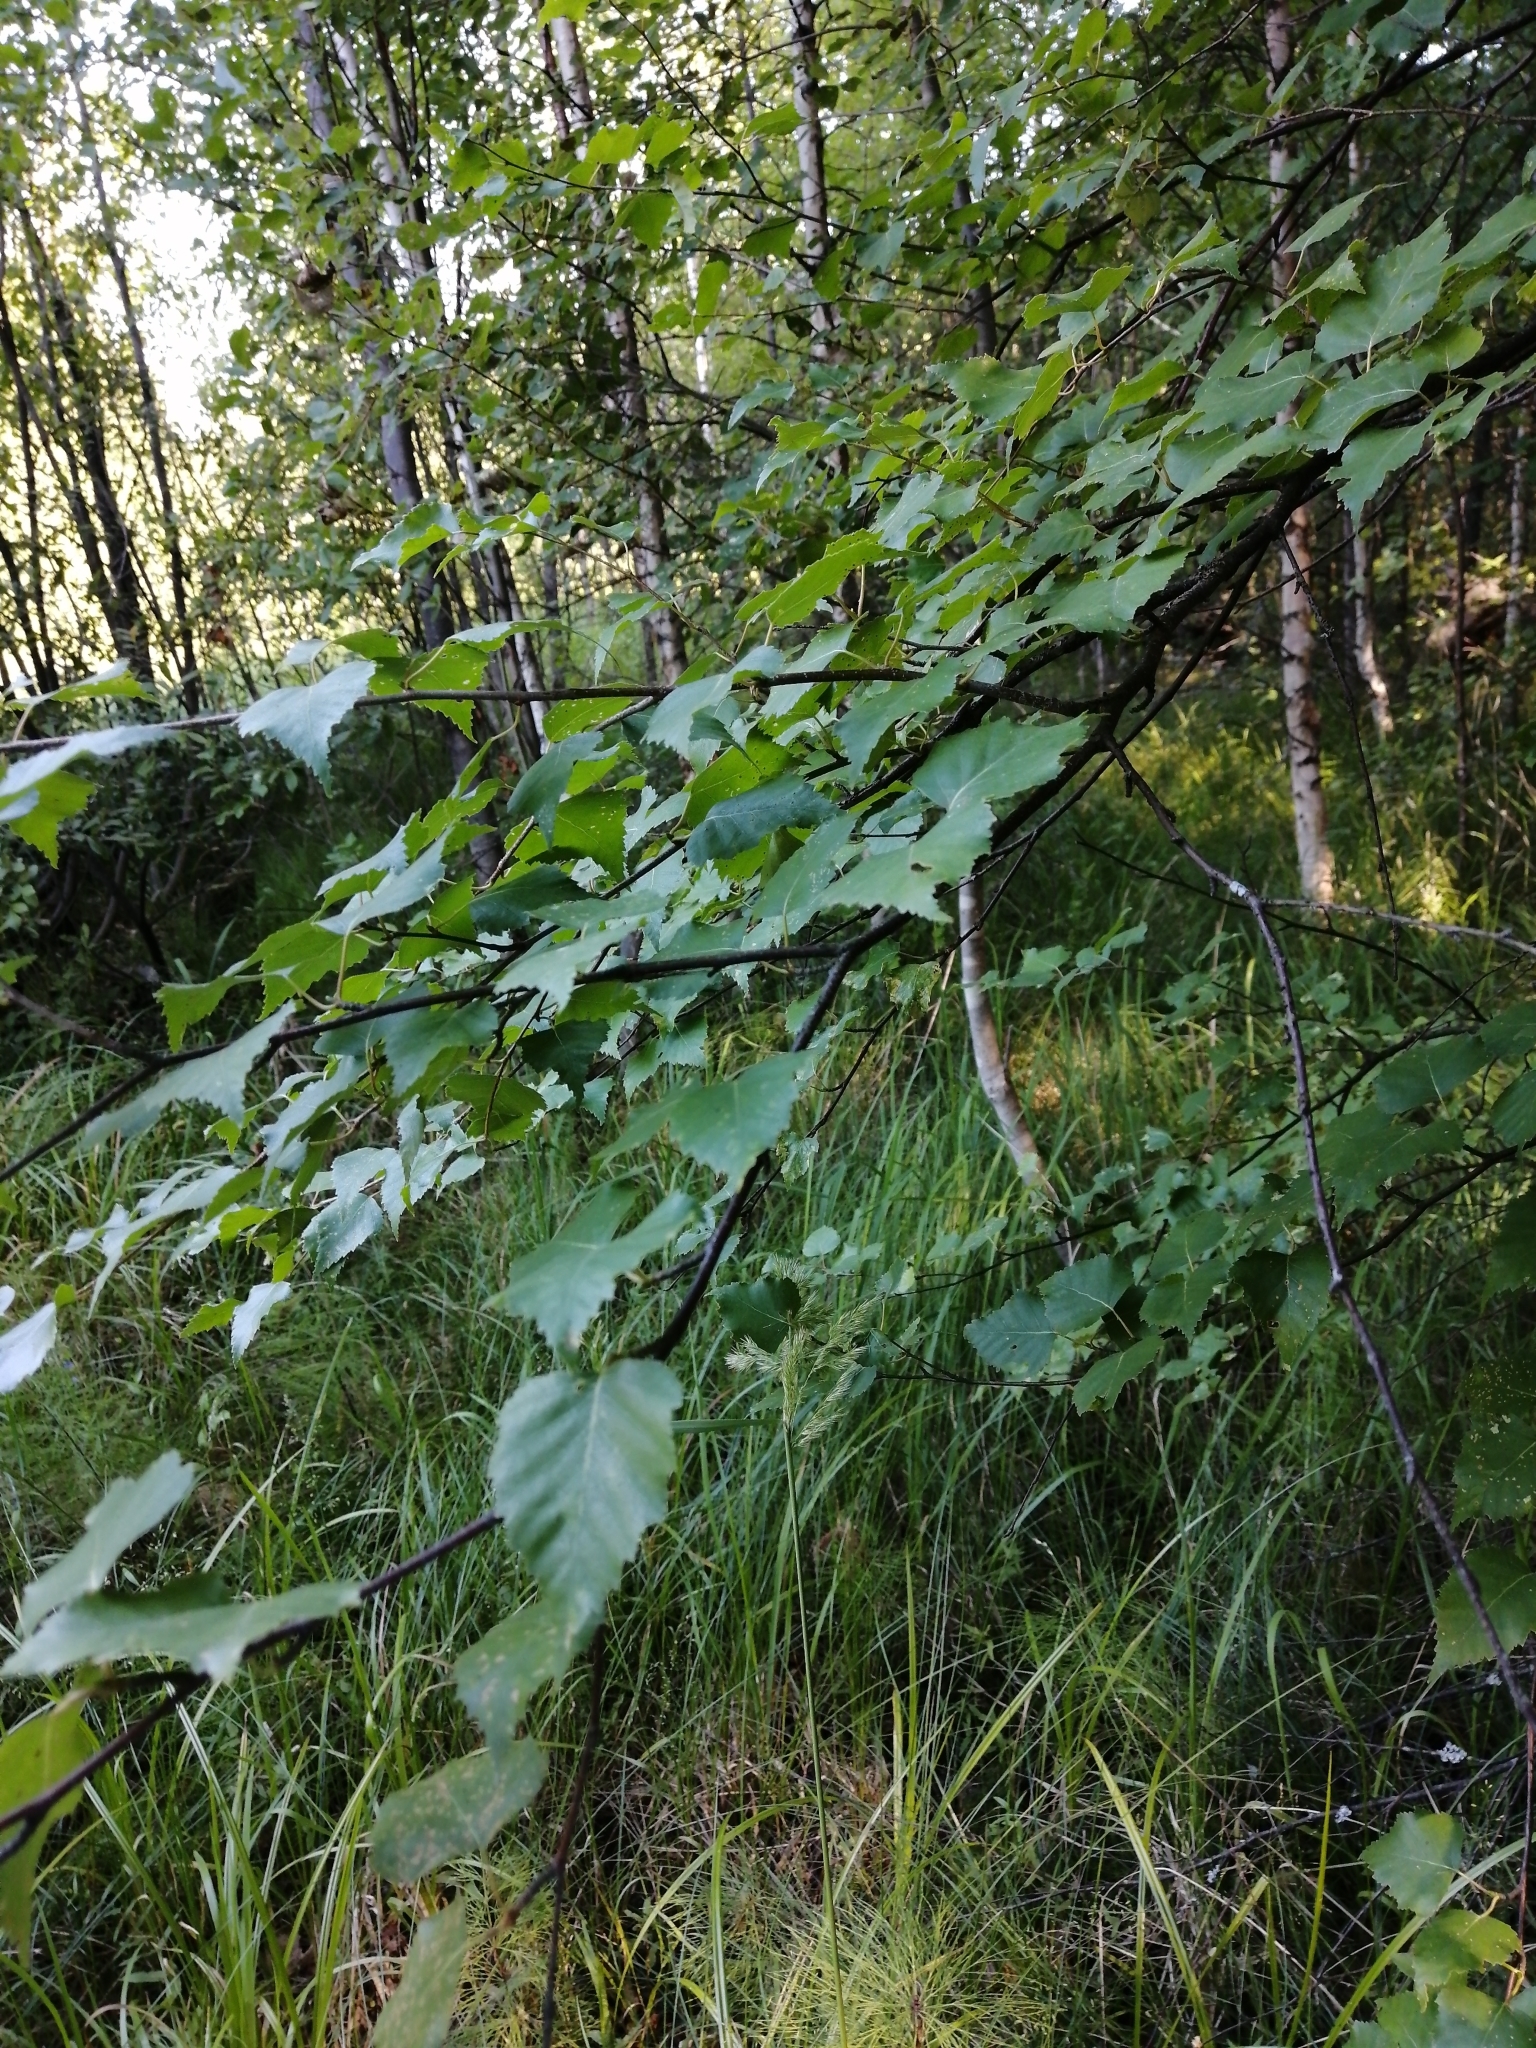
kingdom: Plantae
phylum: Tracheophyta
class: Magnoliopsida
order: Fagales
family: Betulaceae
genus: Betula
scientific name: Betula pubescens
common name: Downy birch
